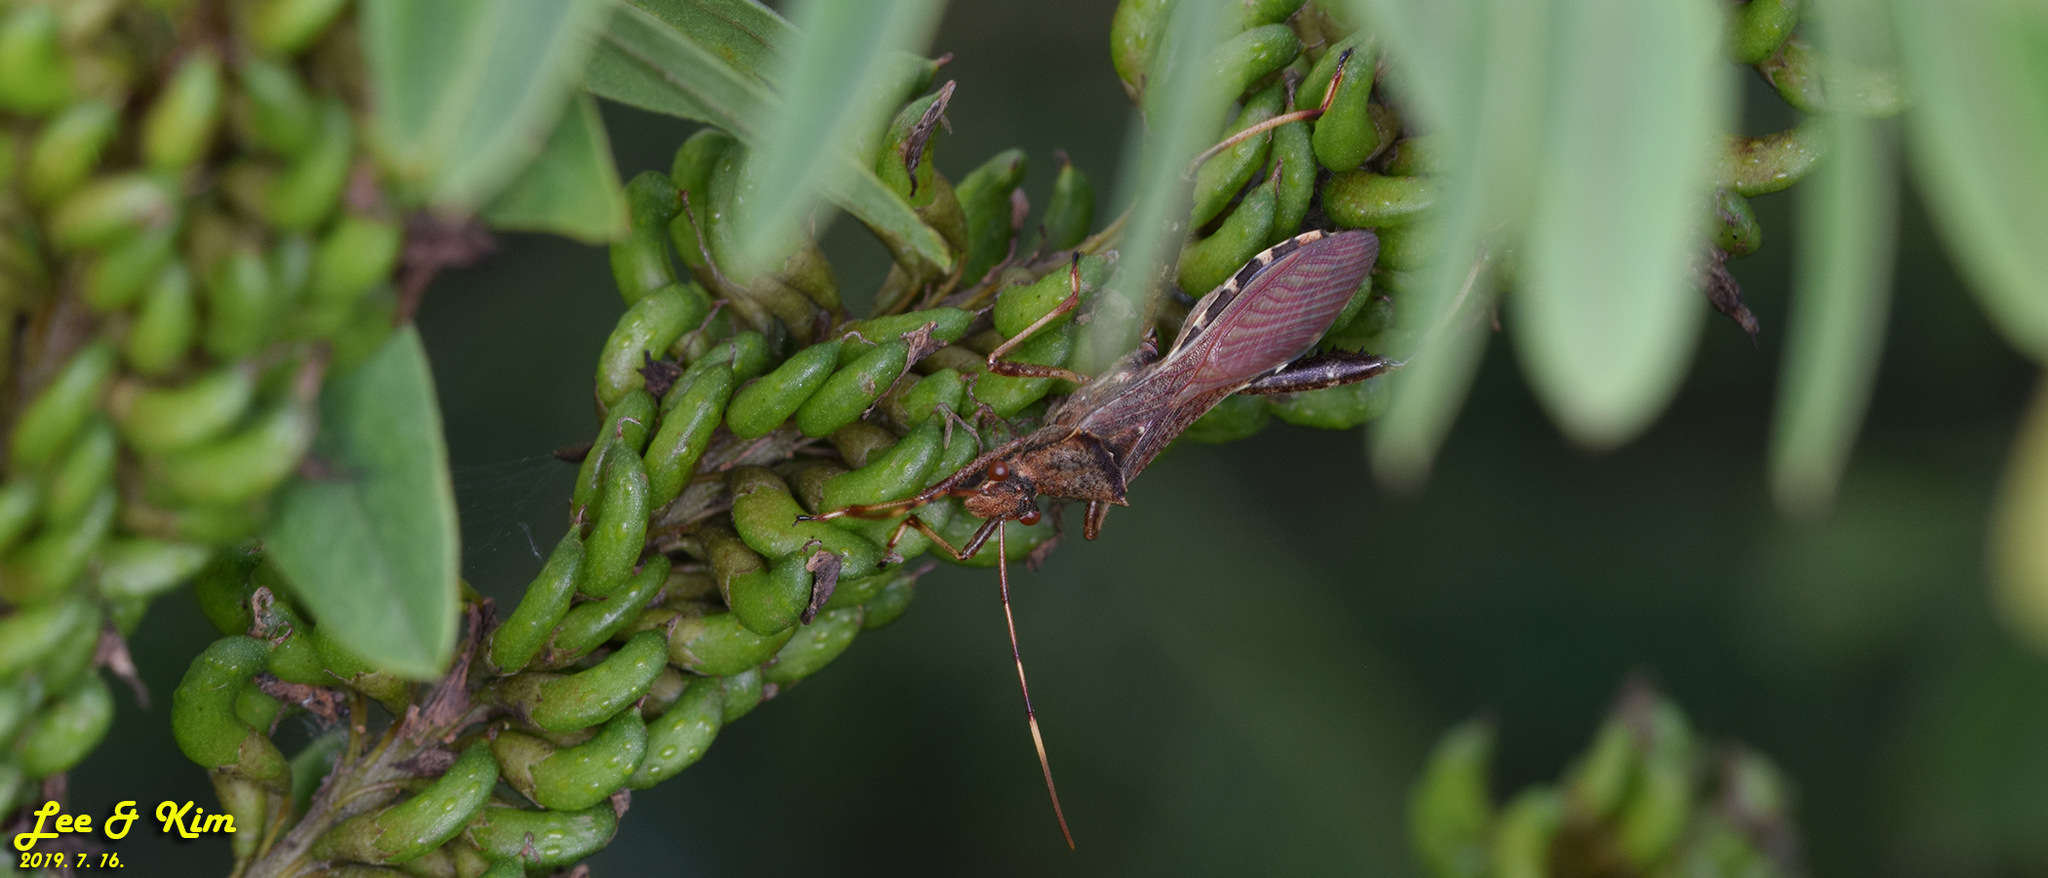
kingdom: Animalia
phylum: Arthropoda
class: Insecta
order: Hemiptera
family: Alydidae
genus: Riptortus
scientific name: Riptortus pedestris
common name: Bean bug
